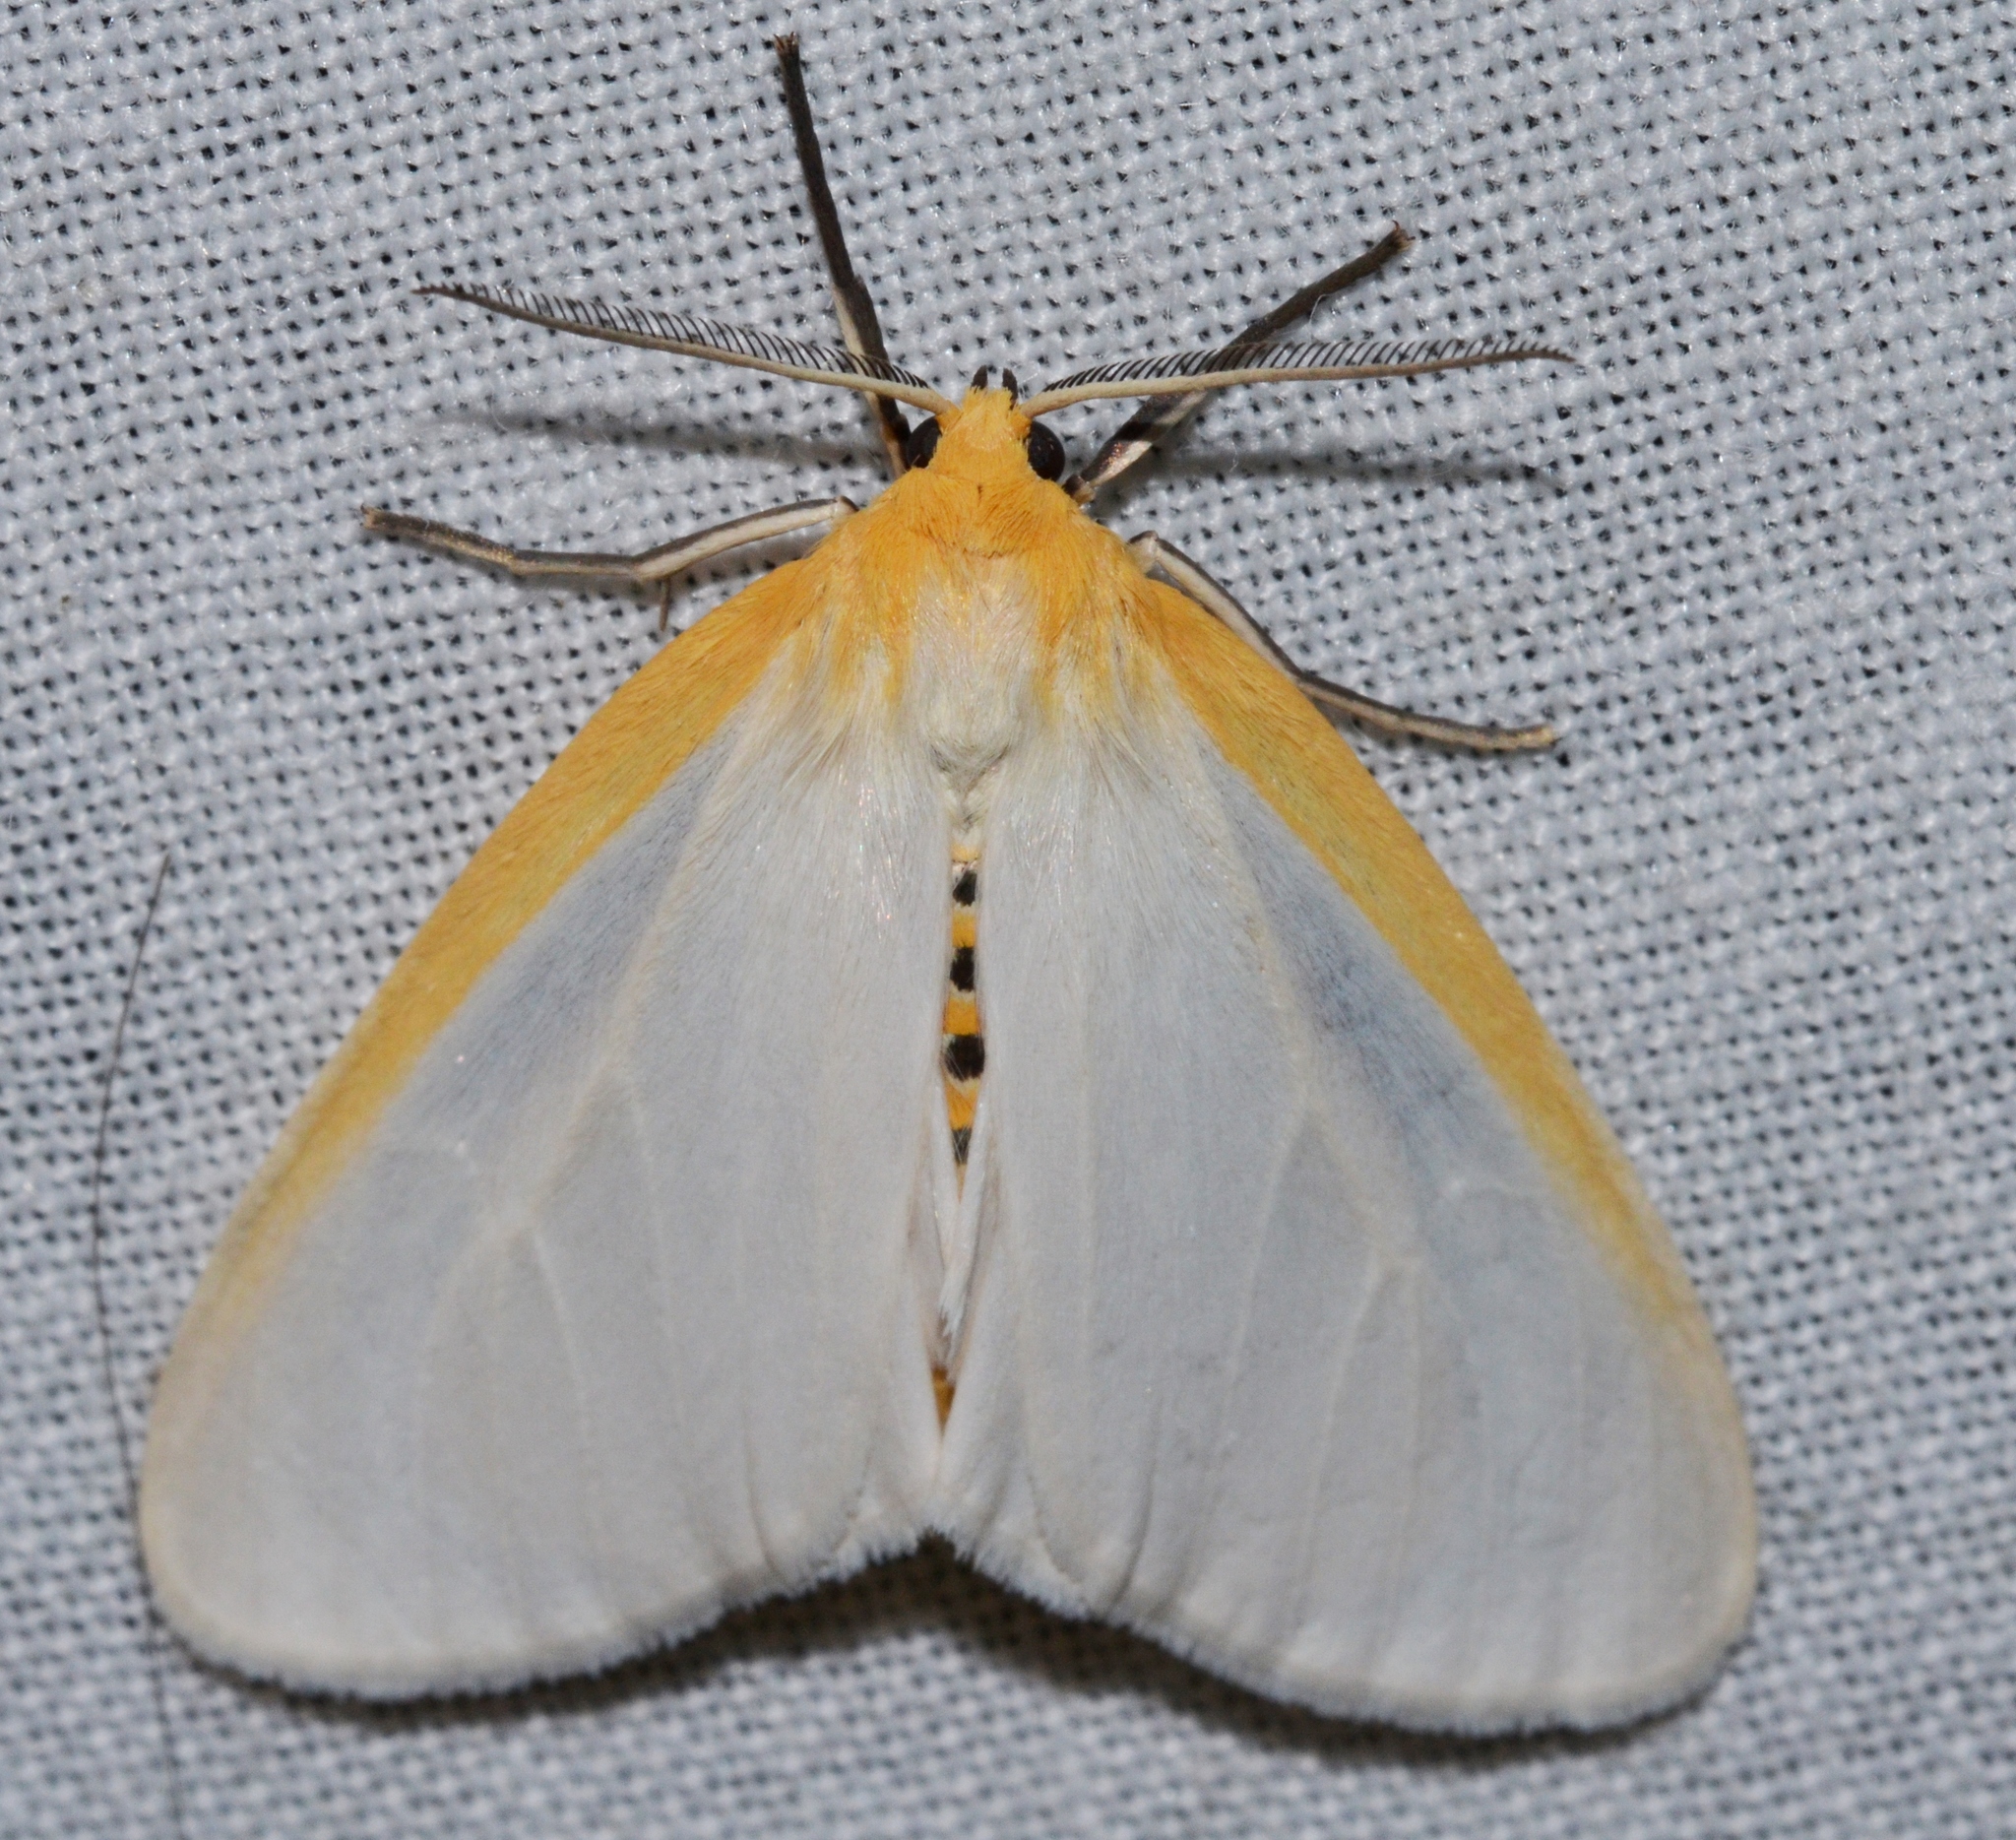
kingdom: Animalia
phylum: Arthropoda
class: Insecta
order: Lepidoptera
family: Erebidae
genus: Cycnia
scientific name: Cycnia tenera
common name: Delicate cycnia moth
